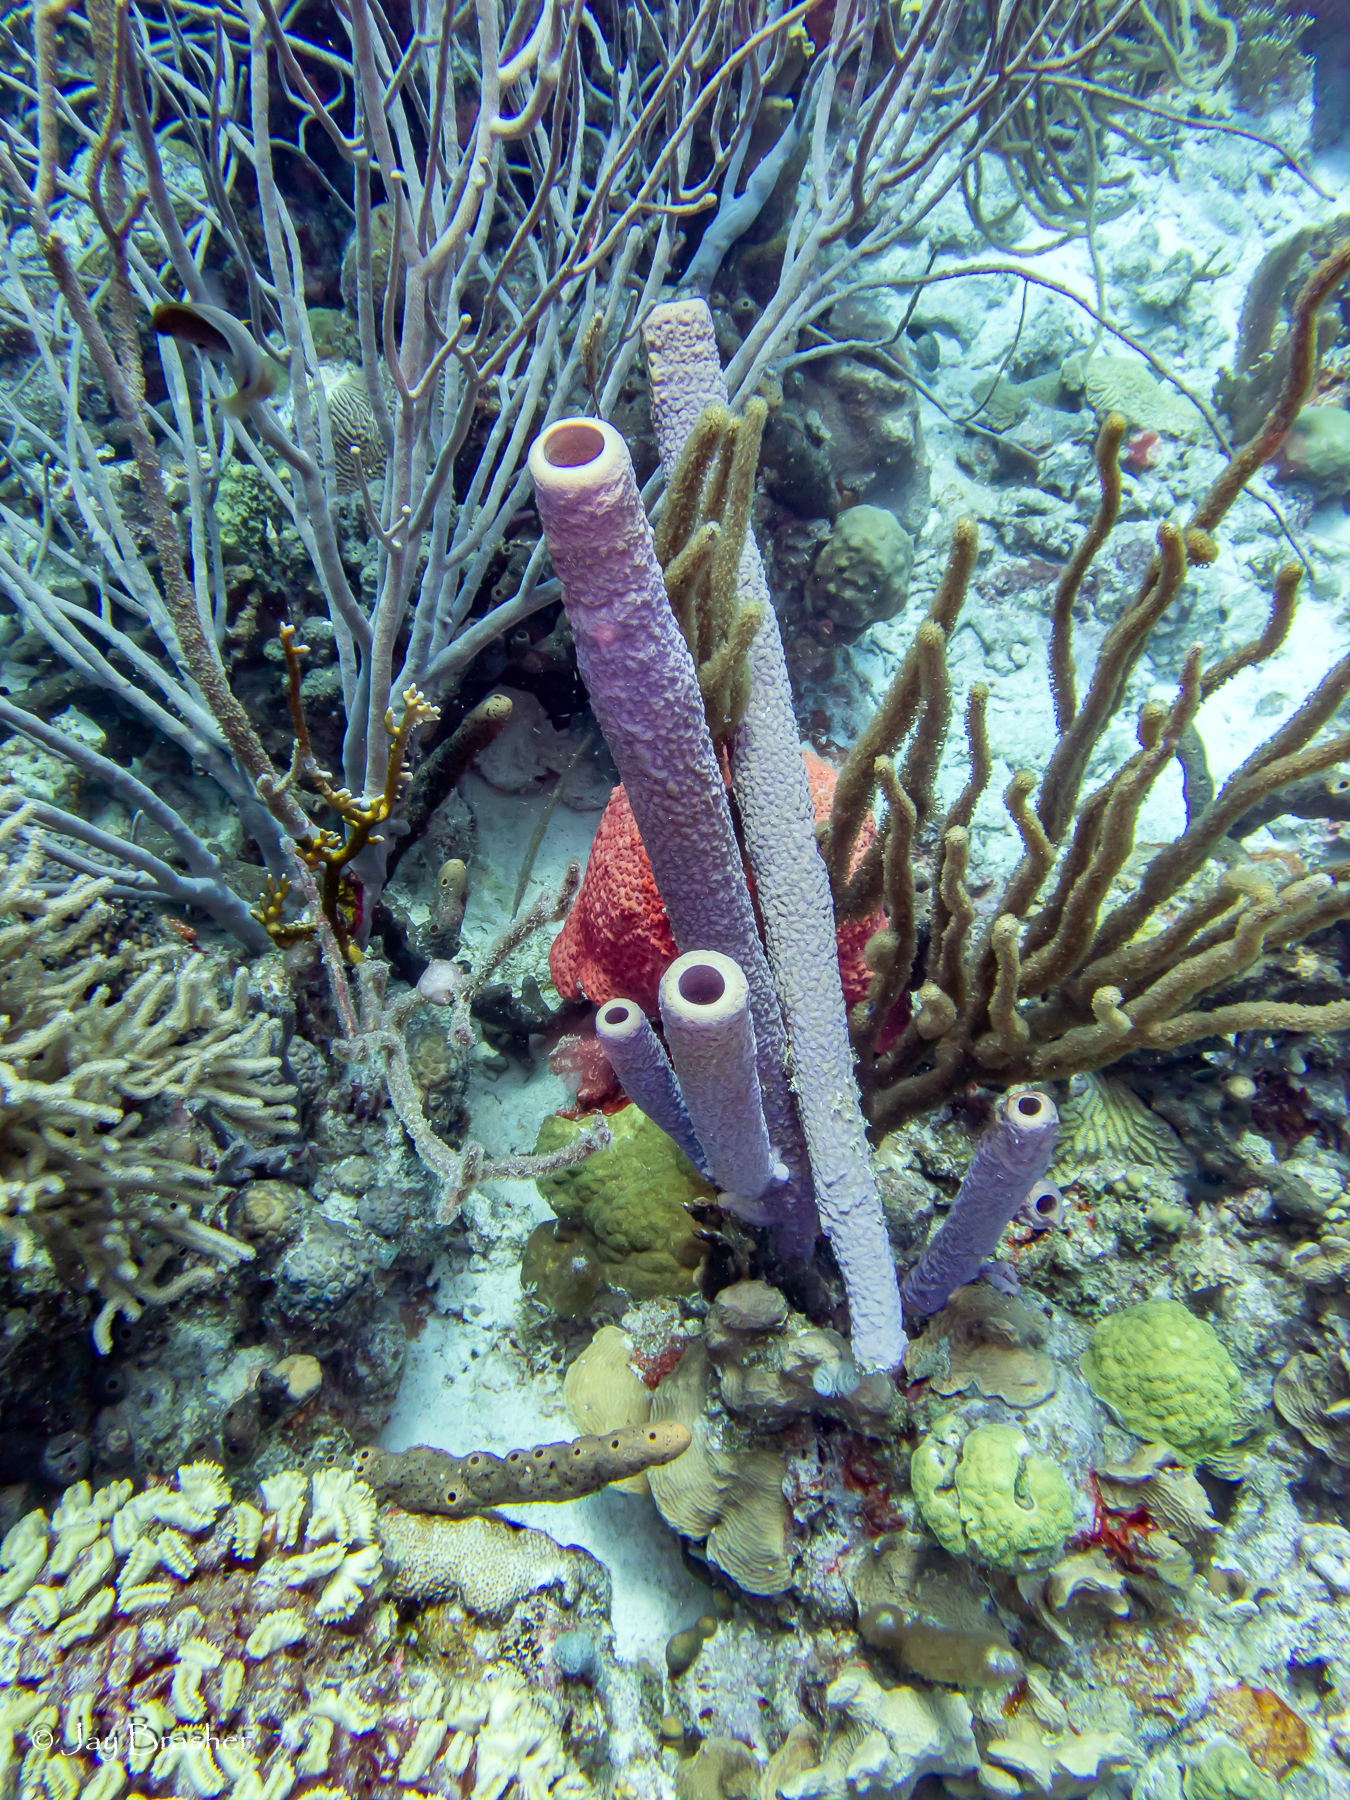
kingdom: Animalia
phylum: Porifera
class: Demospongiae
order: Verongiida
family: Aplysinidae
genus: Aplysina
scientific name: Aplysina archeri
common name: Stove-pipe sponge
